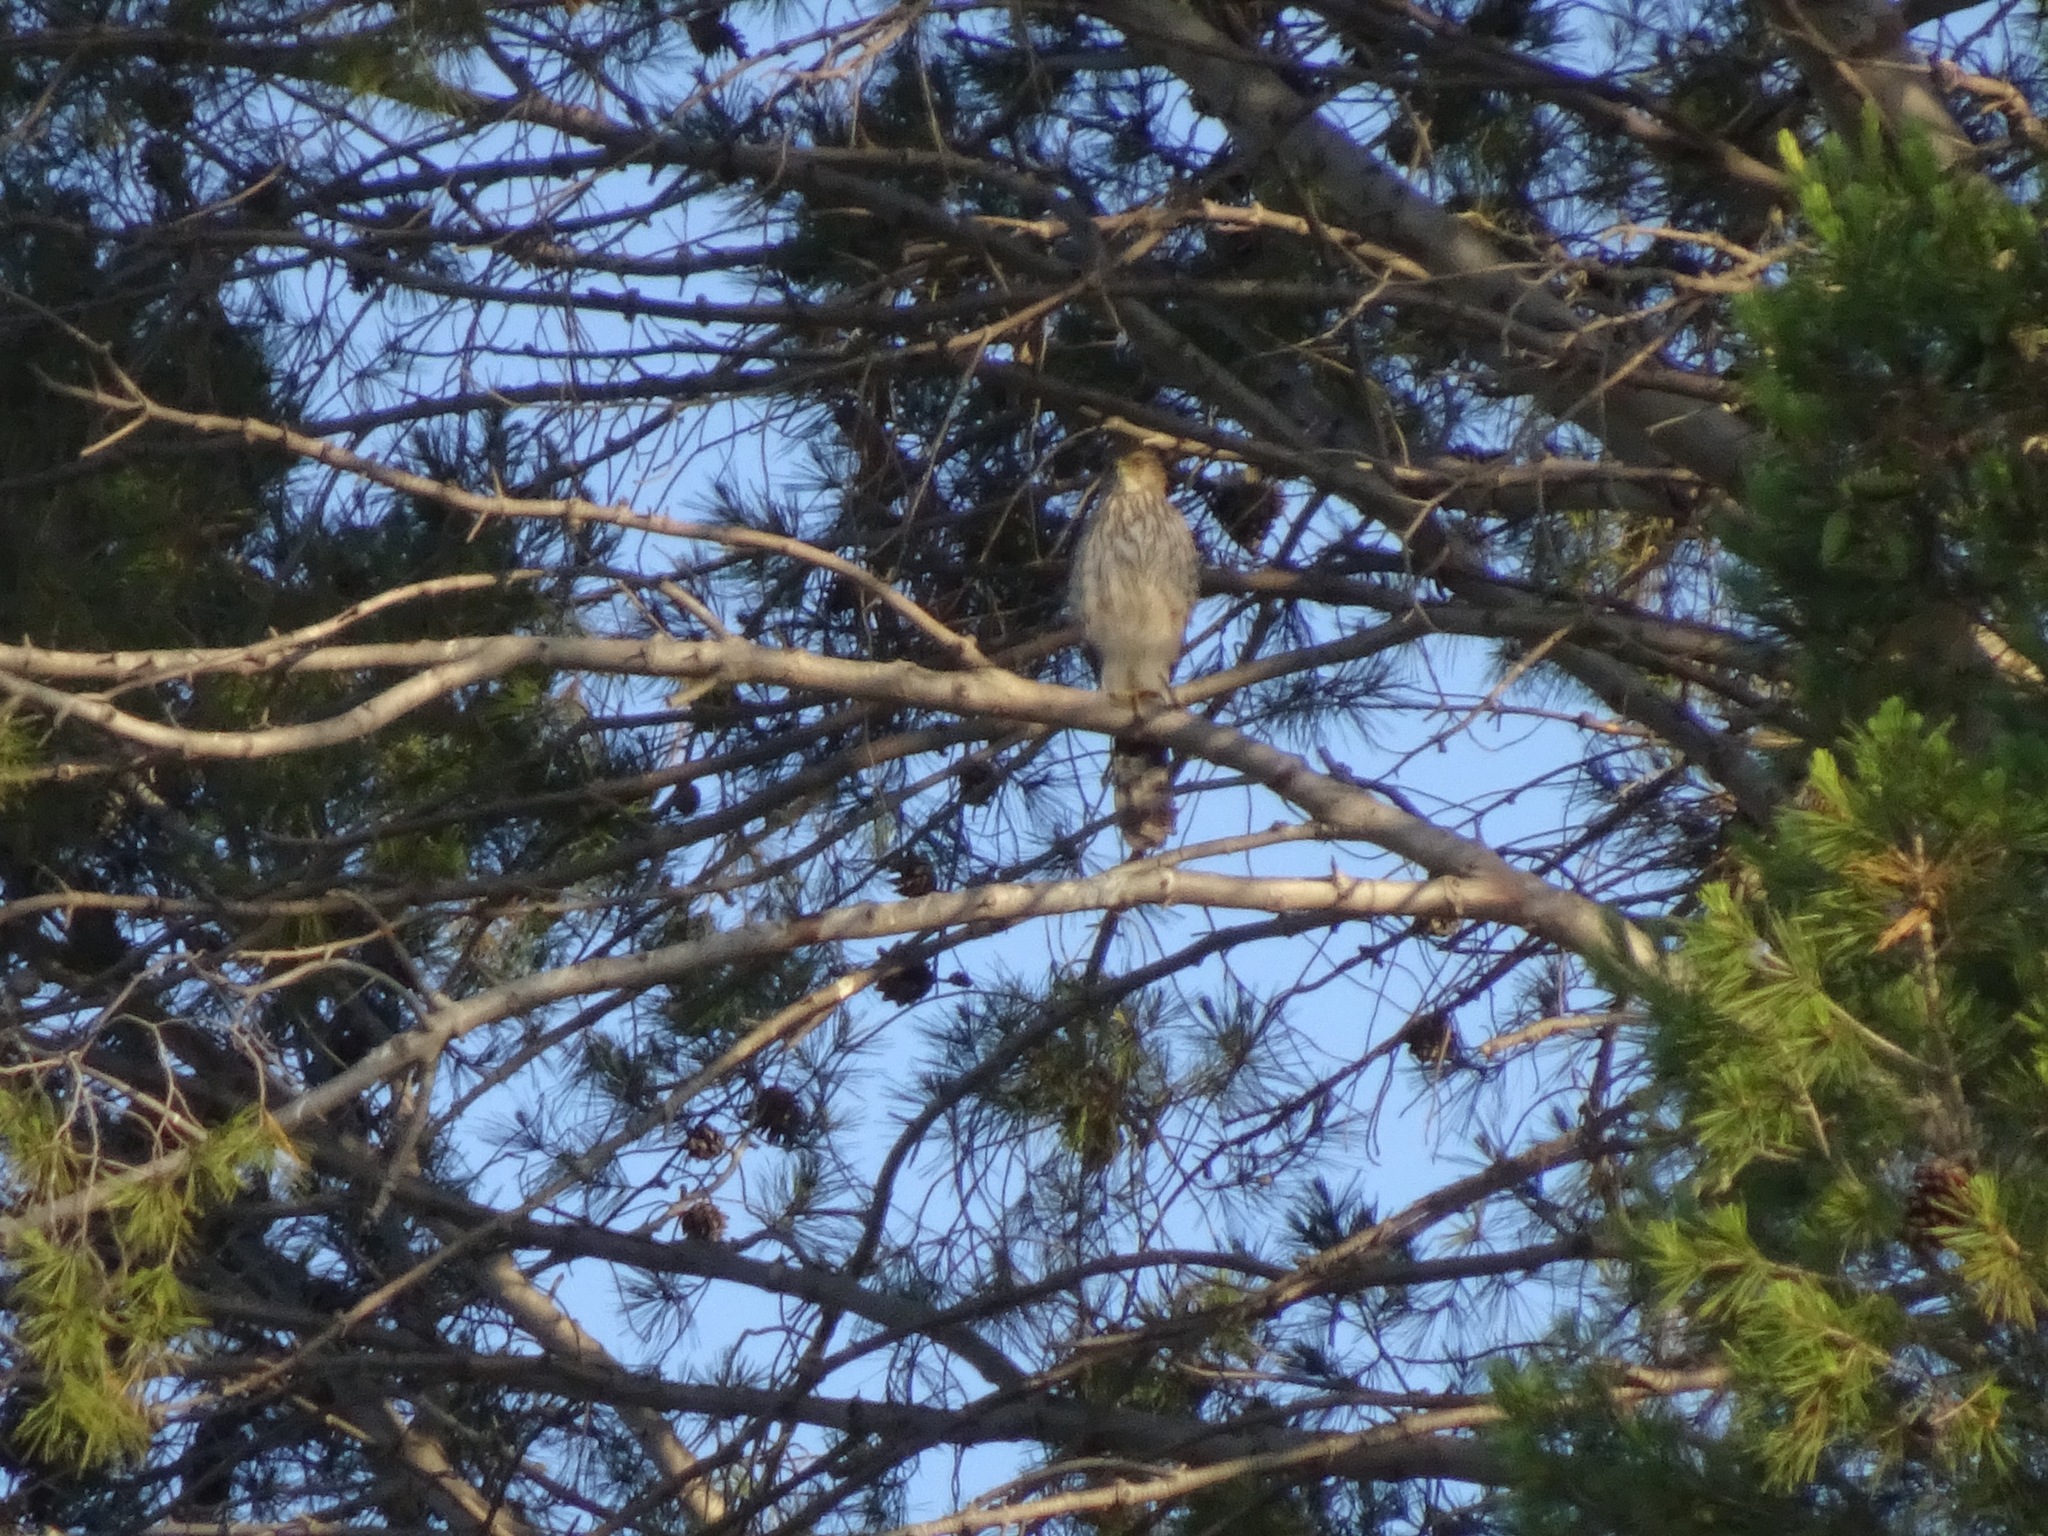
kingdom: Animalia
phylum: Chordata
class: Aves
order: Accipitriformes
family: Accipitridae
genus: Accipiter
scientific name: Accipiter cooperii
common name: Cooper's hawk
